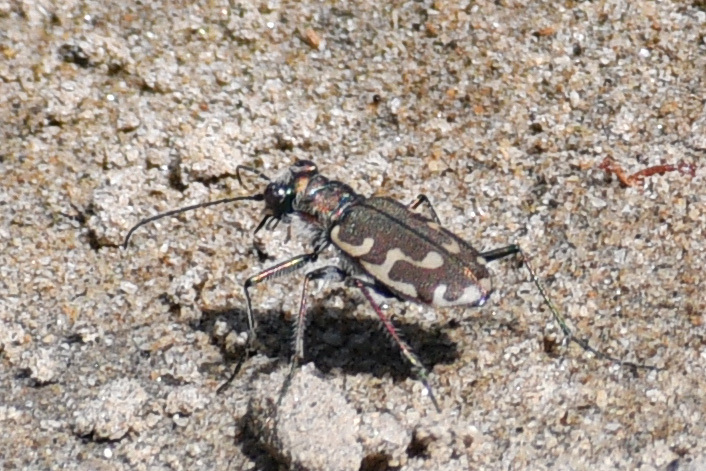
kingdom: Animalia
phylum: Arthropoda
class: Insecta
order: Coleoptera
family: Carabidae
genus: Cicindela
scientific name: Cicindela repanda
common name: Bronzed tiger beetle
